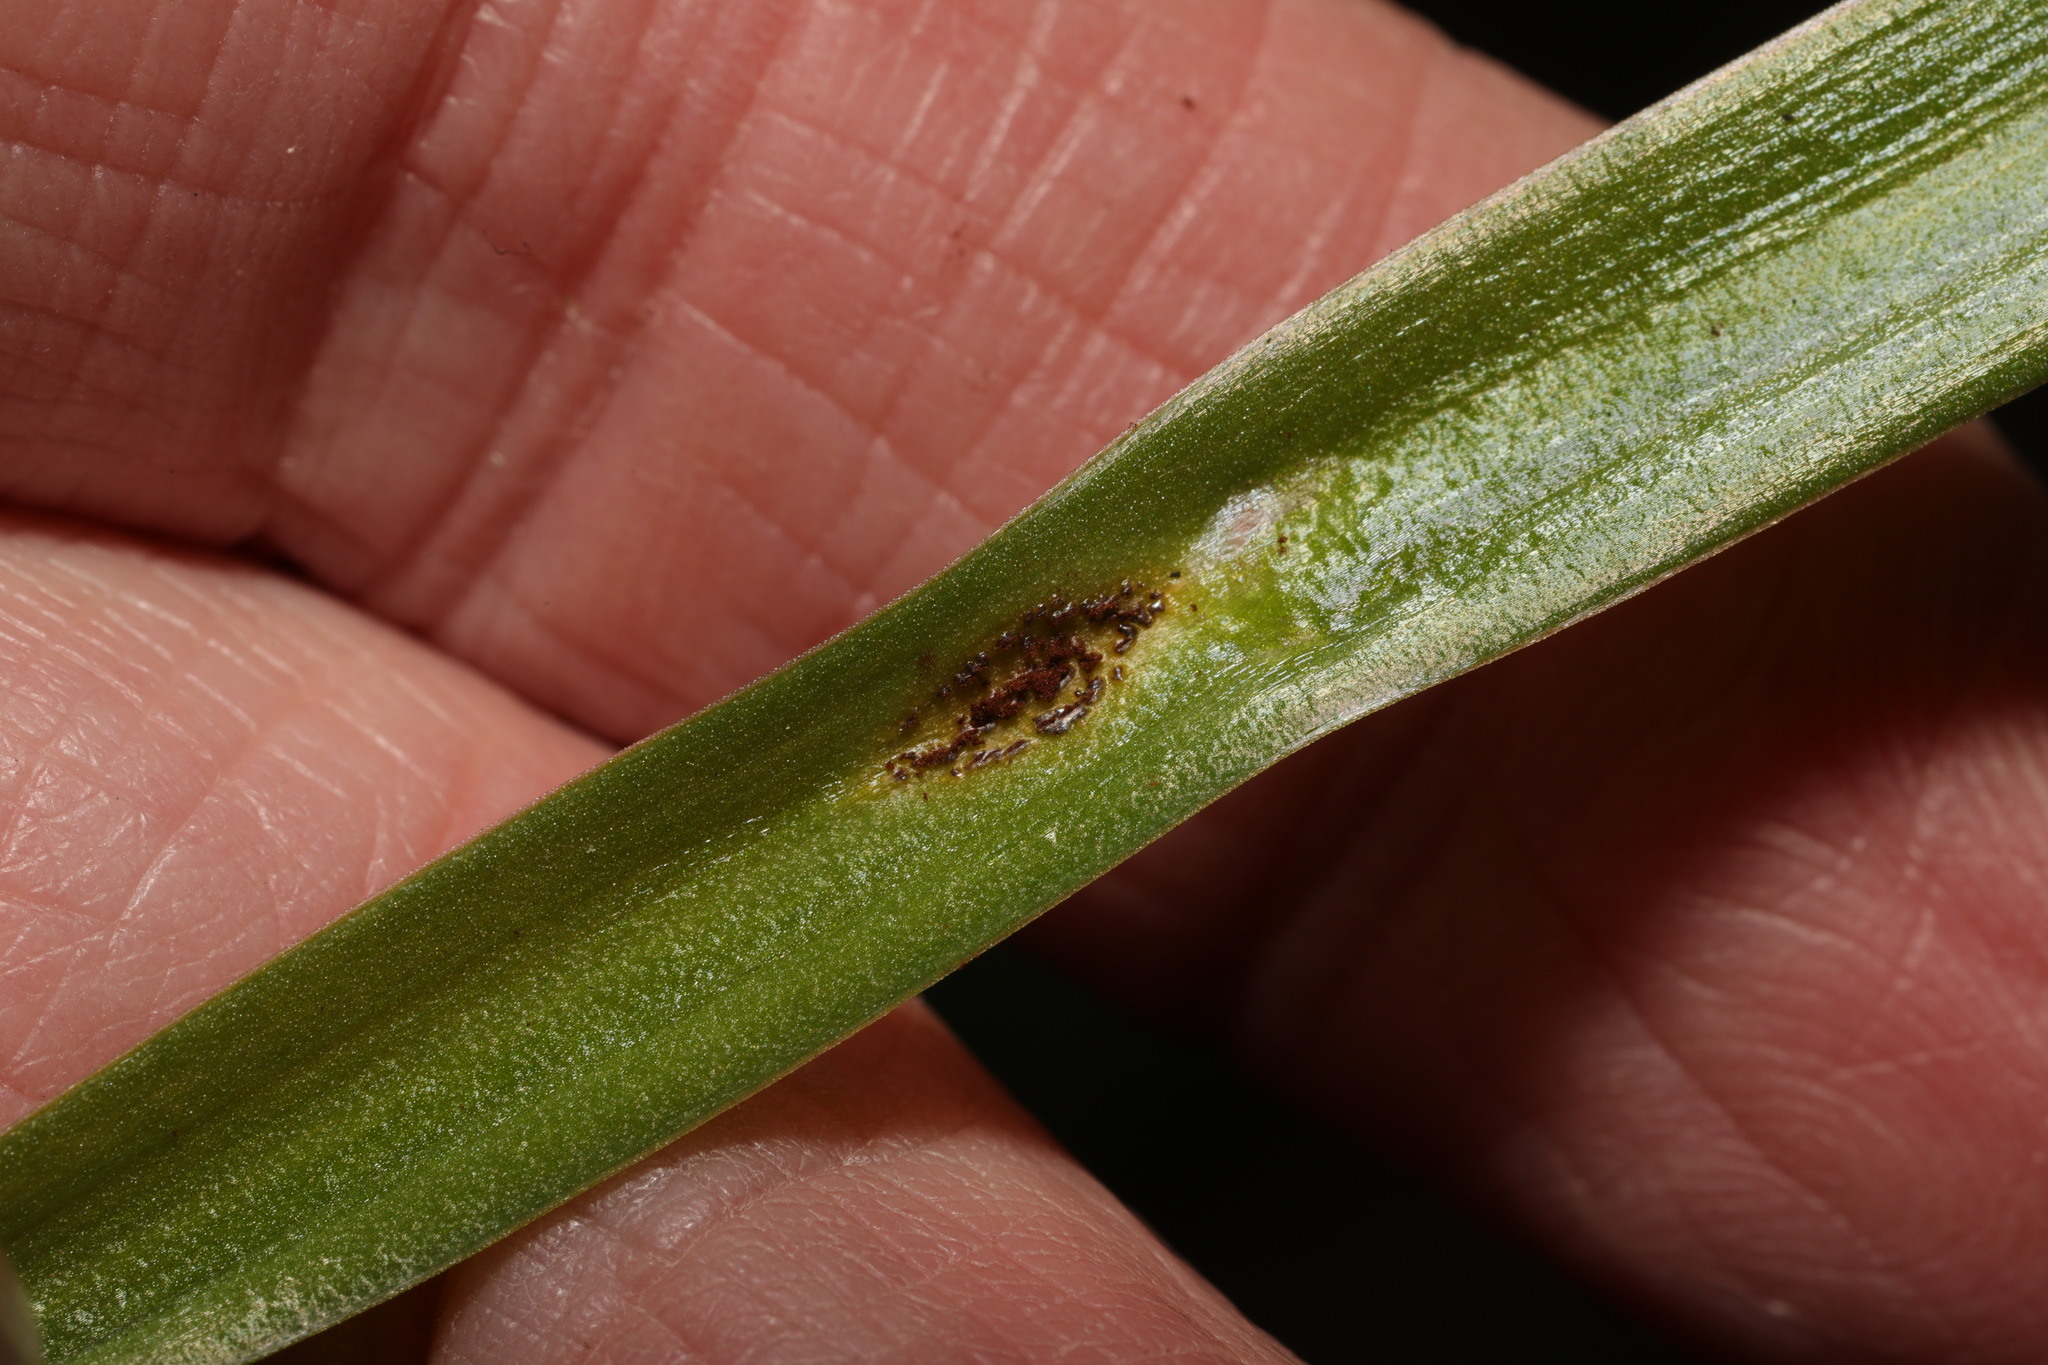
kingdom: Fungi
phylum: Basidiomycota
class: Pucciniomycetes
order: Pucciniales
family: Pucciniaceae
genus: Uromyces
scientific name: Uromyces hyacinthi
